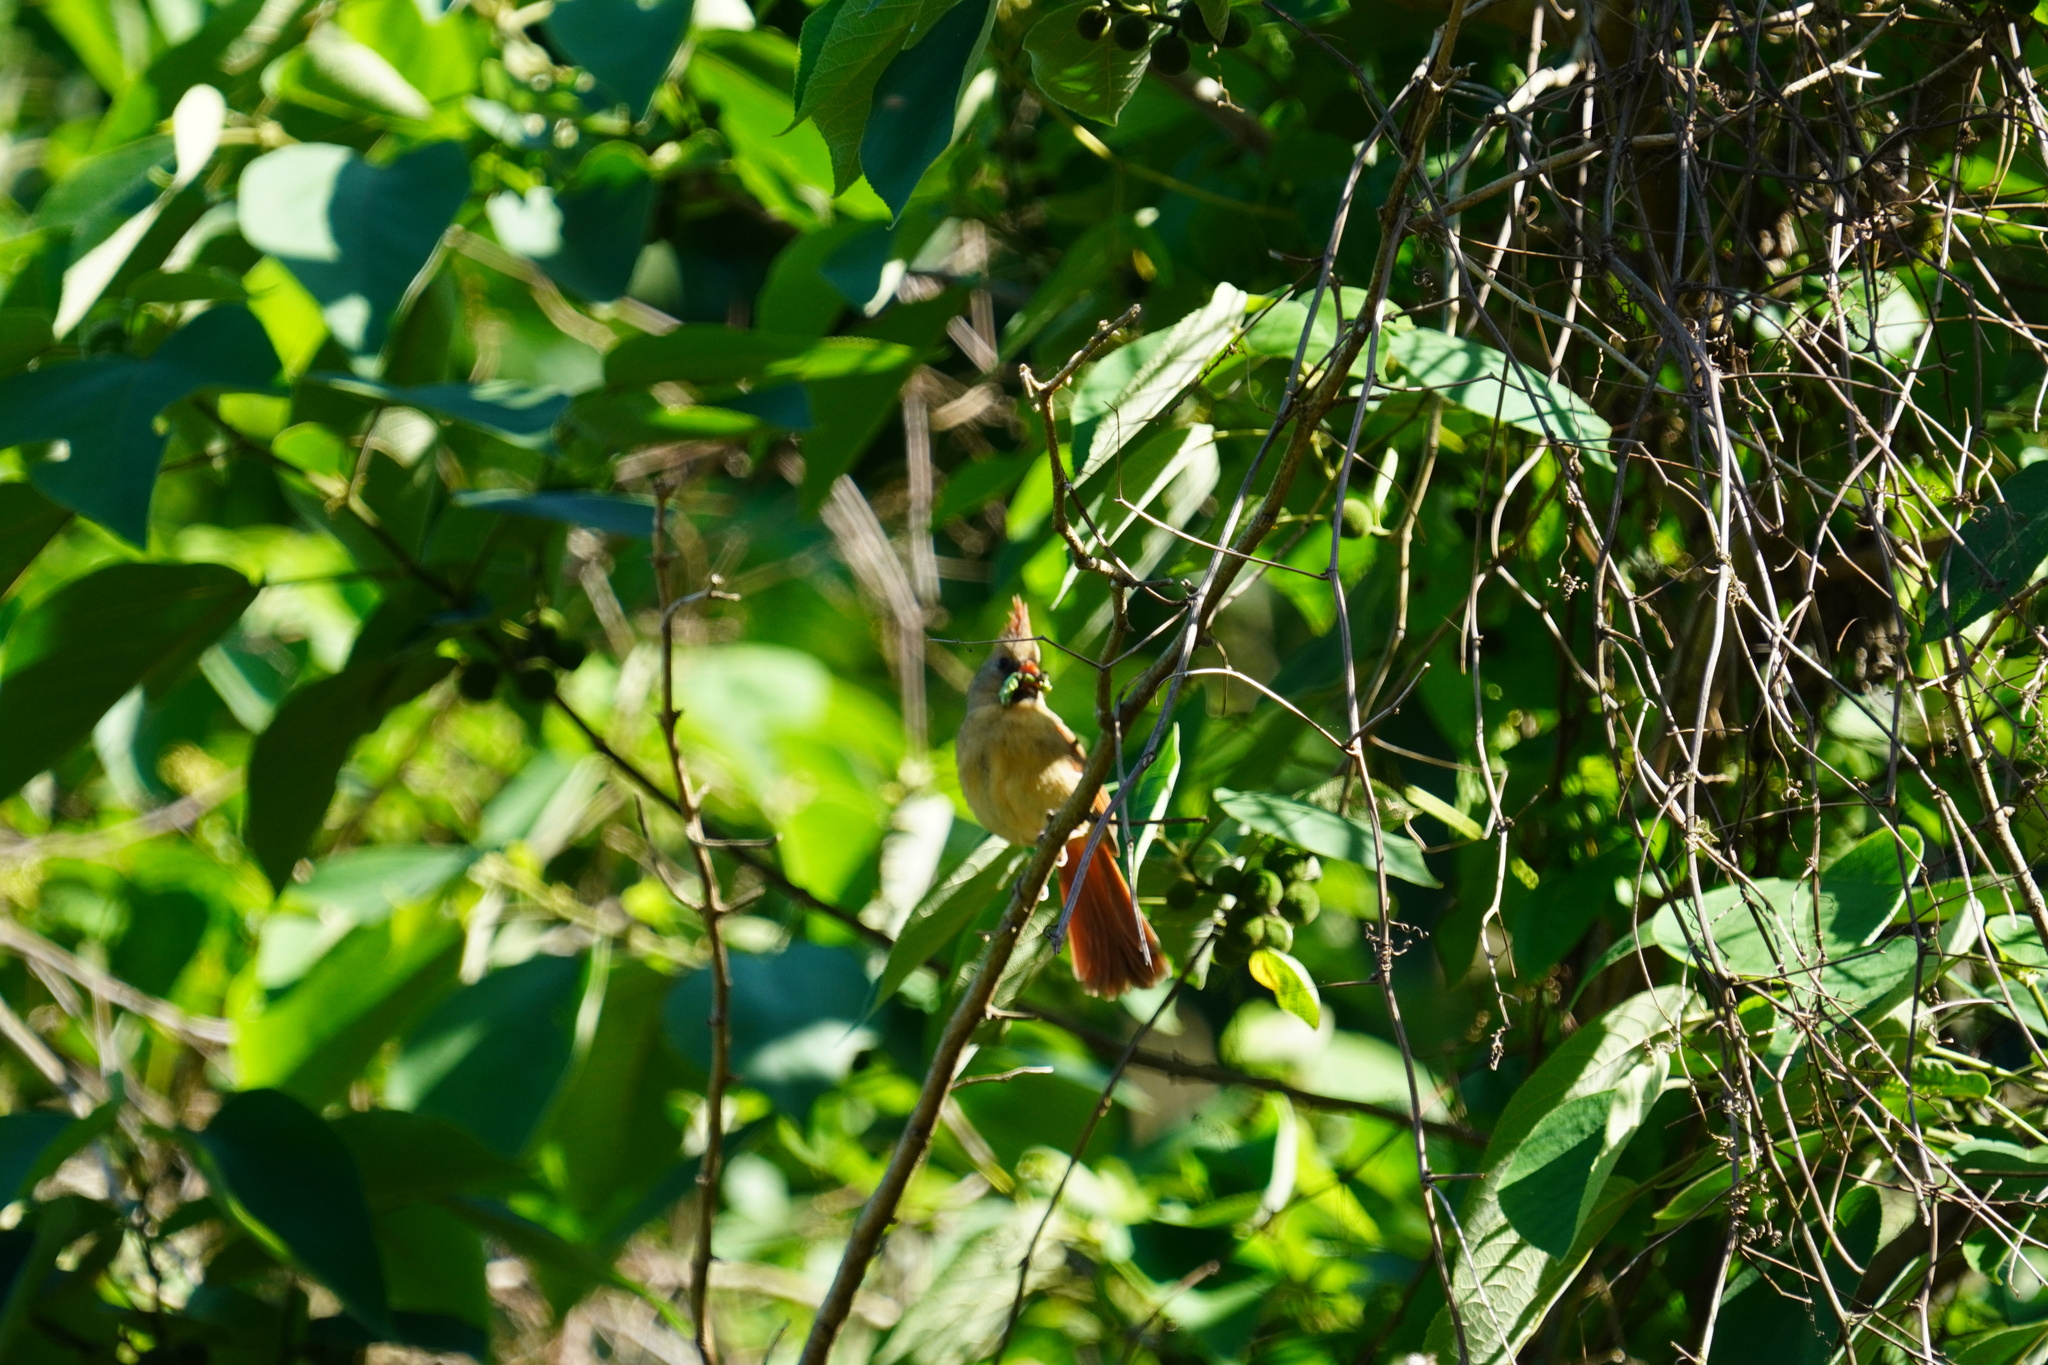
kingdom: Animalia
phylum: Chordata
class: Aves
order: Passeriformes
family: Cardinalidae
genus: Cardinalis
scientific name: Cardinalis cardinalis
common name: Northern cardinal
